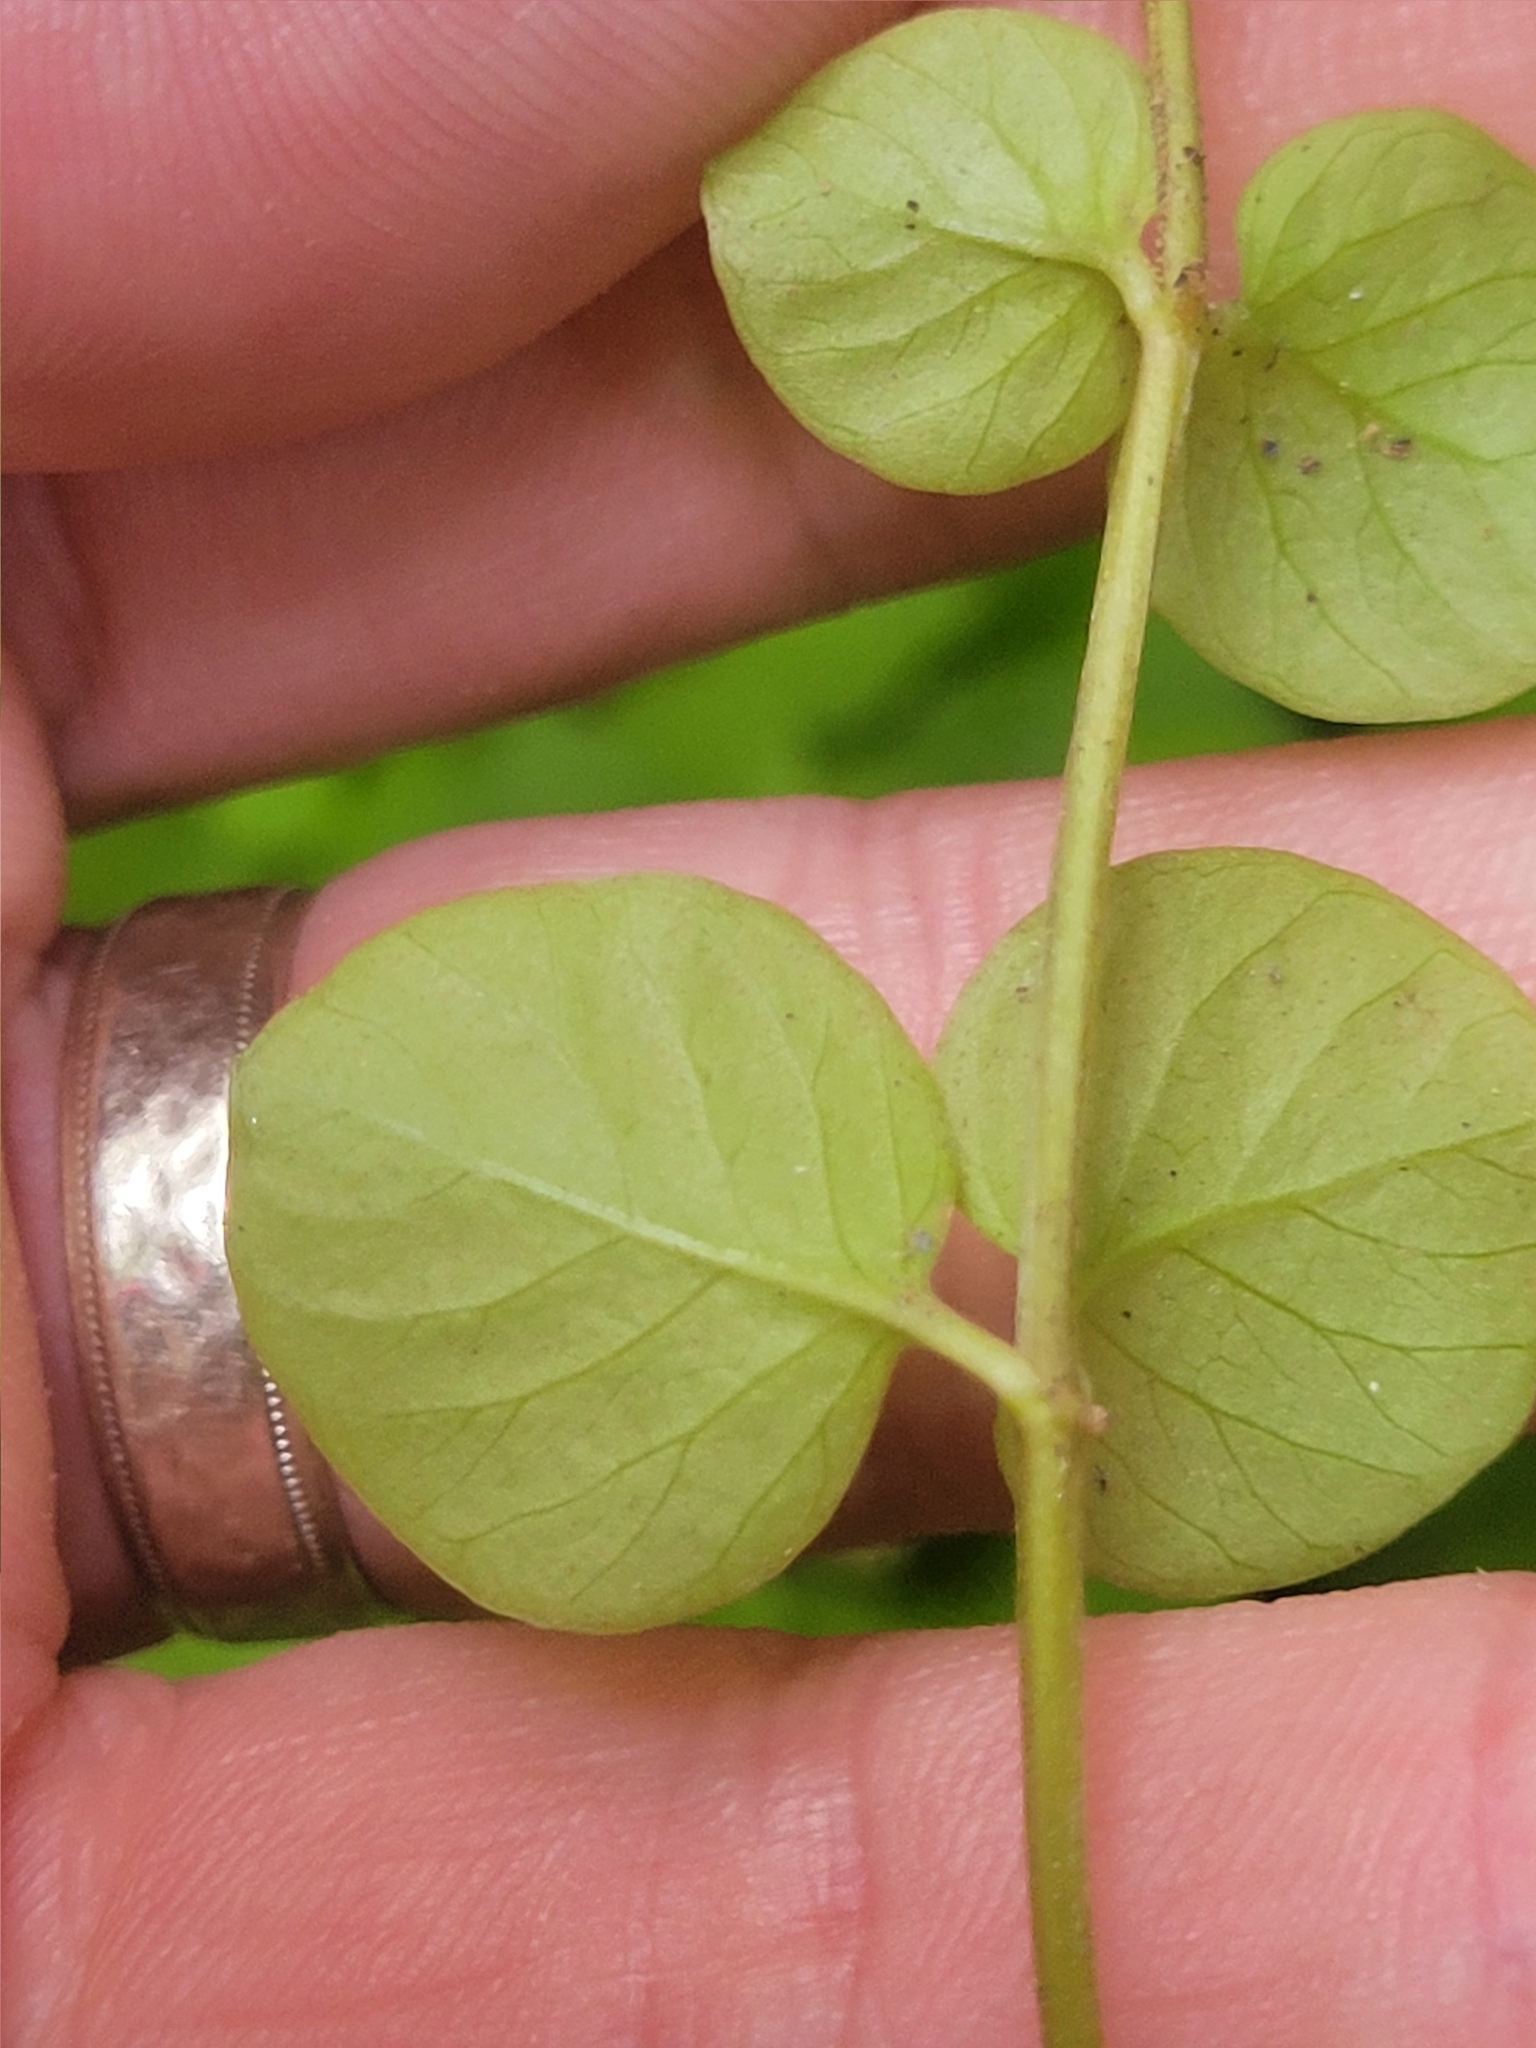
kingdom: Plantae
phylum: Tracheophyta
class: Magnoliopsida
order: Ericales
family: Primulaceae
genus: Lysimachia
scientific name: Lysimachia nummularia
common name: Moneywort
